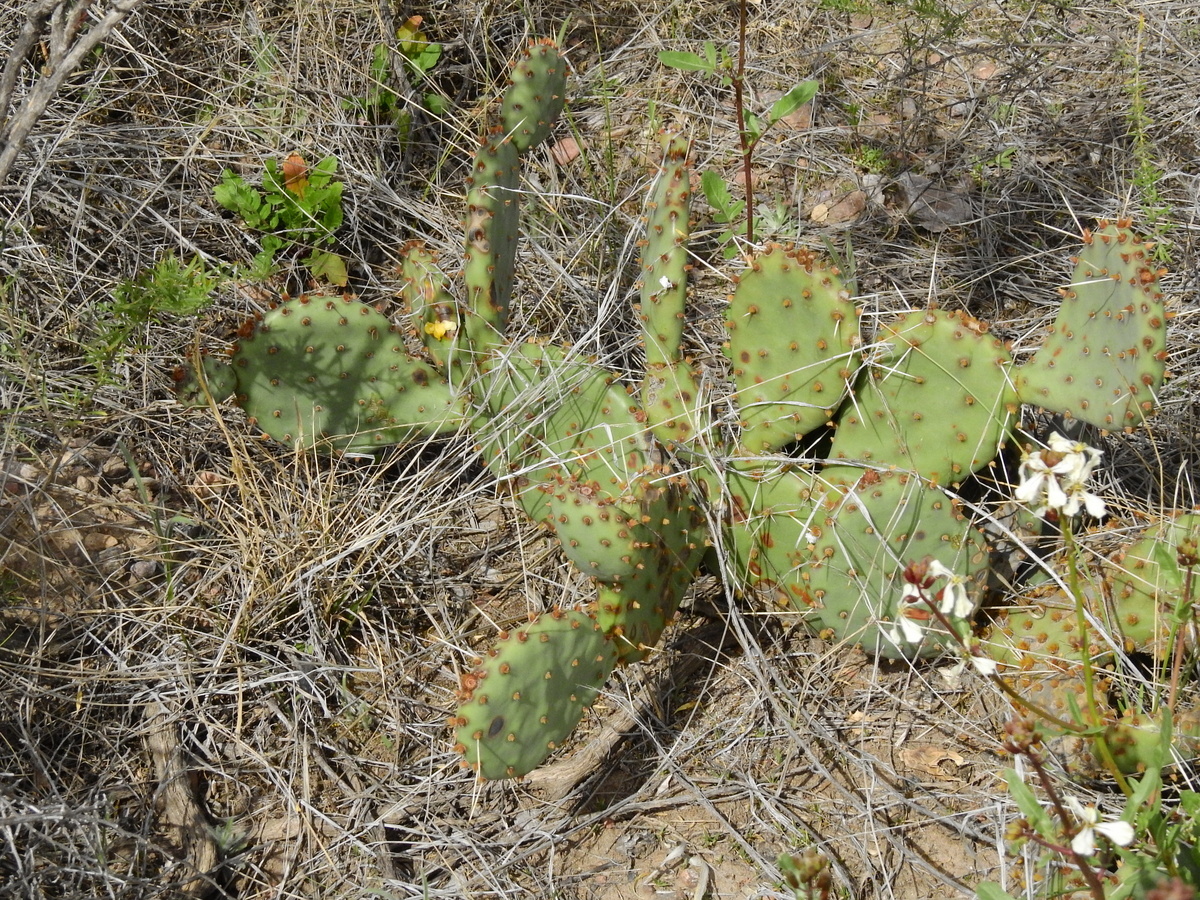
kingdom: Plantae
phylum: Tracheophyta
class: Magnoliopsida
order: Caryophyllales
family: Cactaceae
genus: Opuntia
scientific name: Opuntia penicilligera
